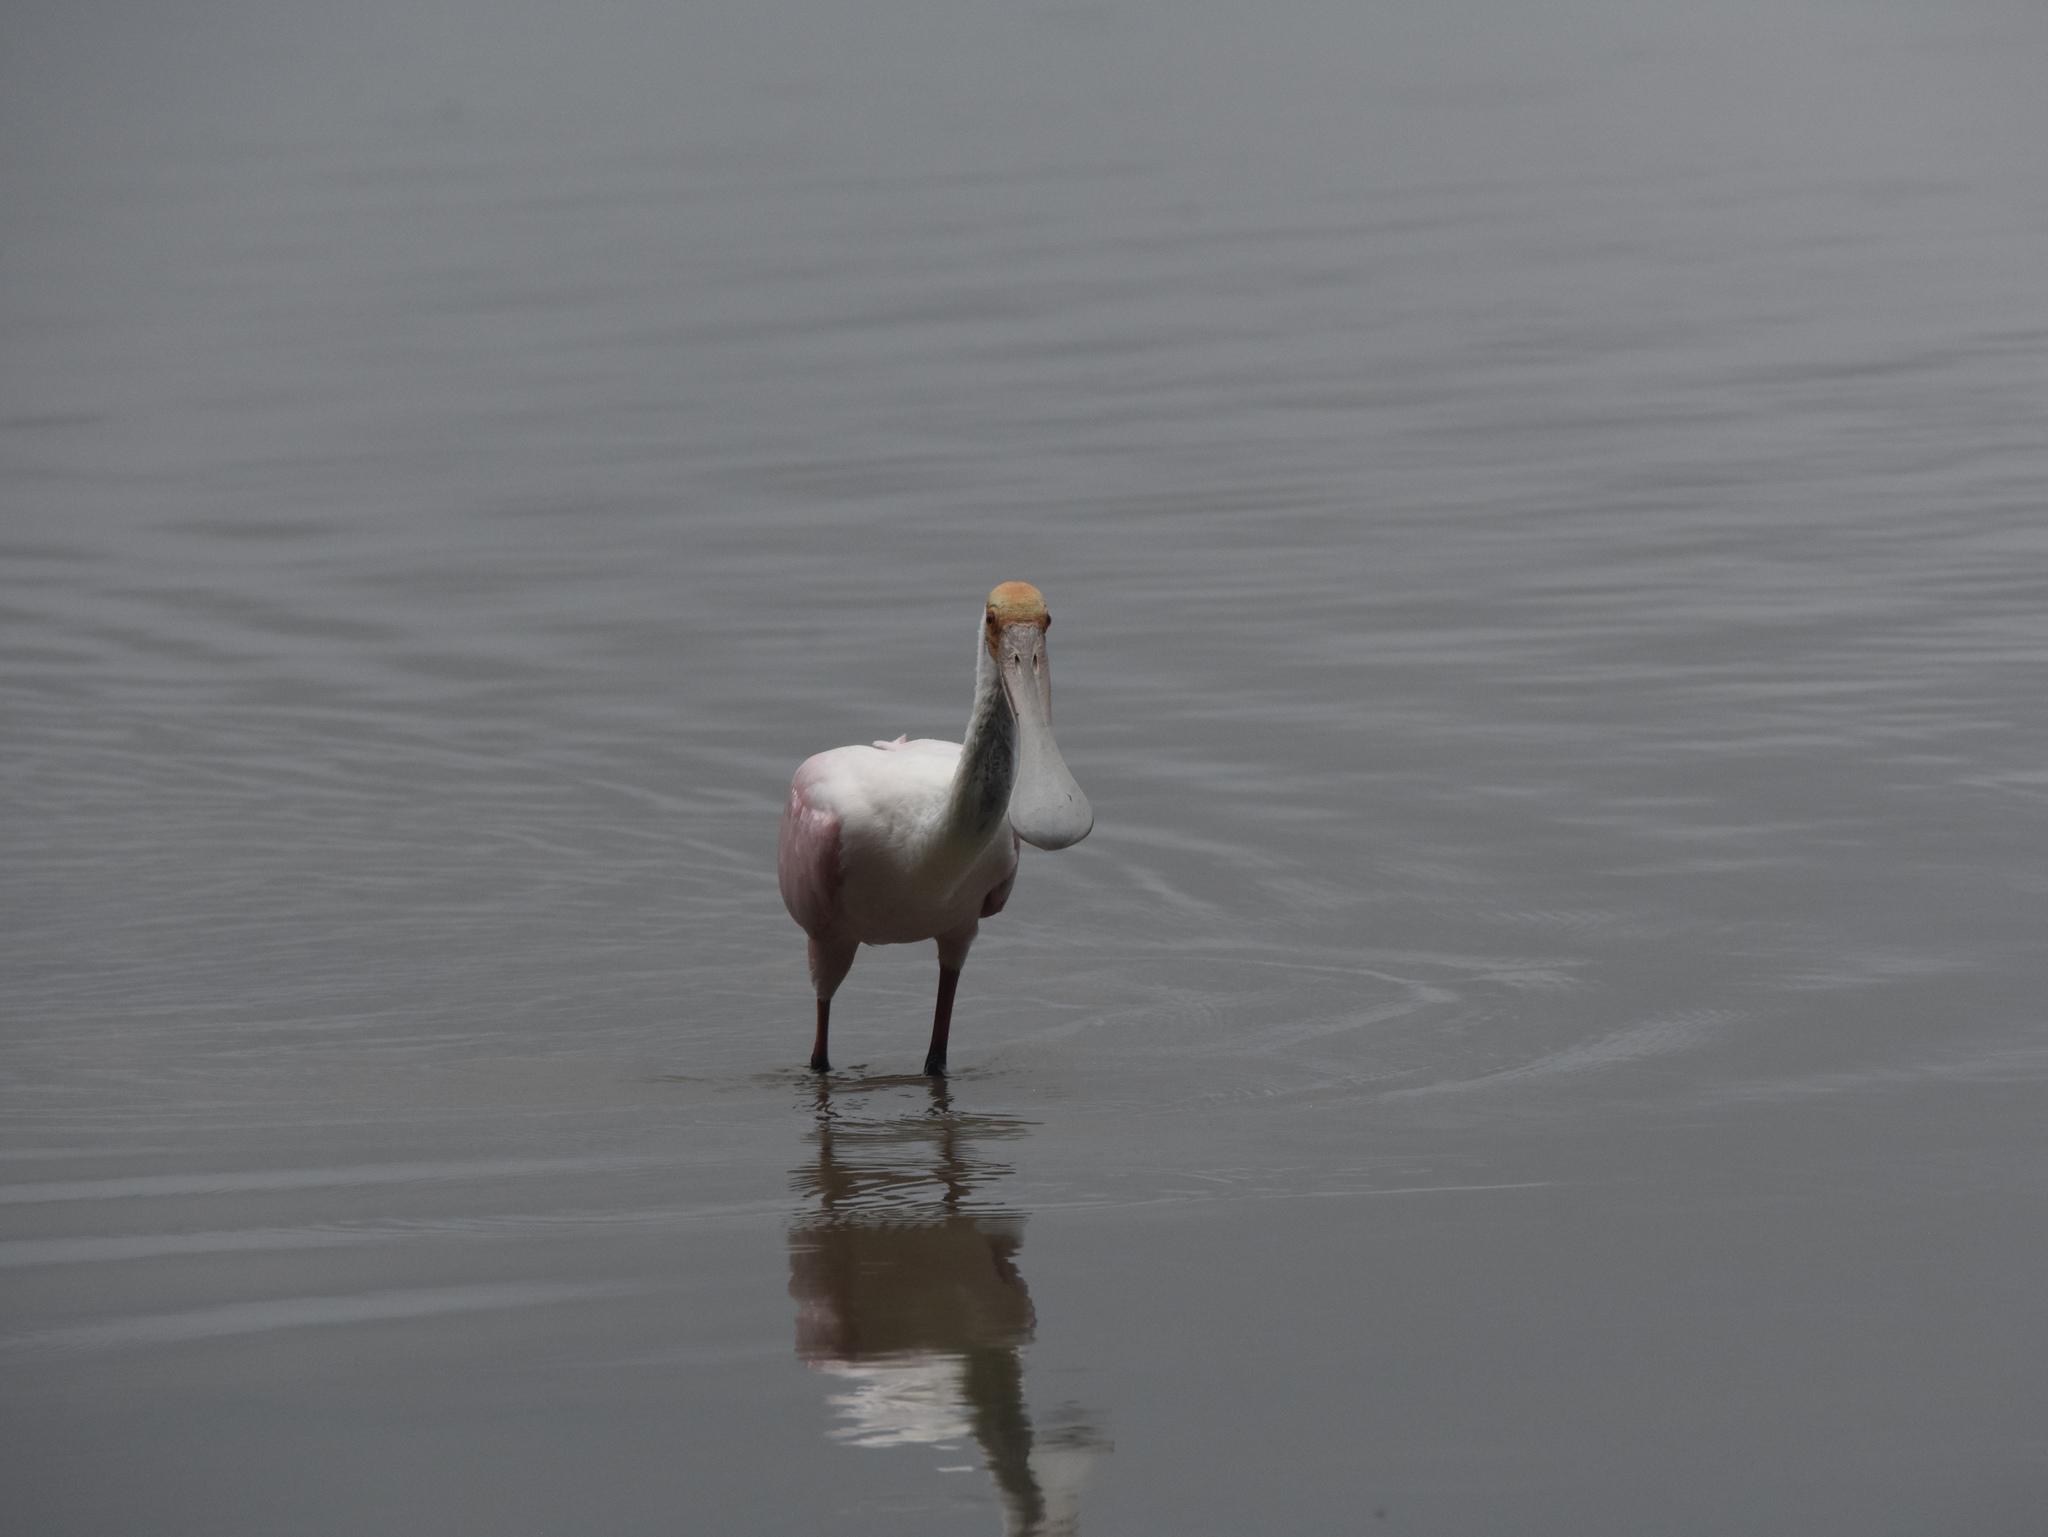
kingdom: Animalia
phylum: Chordata
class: Aves
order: Pelecaniformes
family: Threskiornithidae
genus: Platalea
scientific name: Platalea ajaja
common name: Roseate spoonbill
